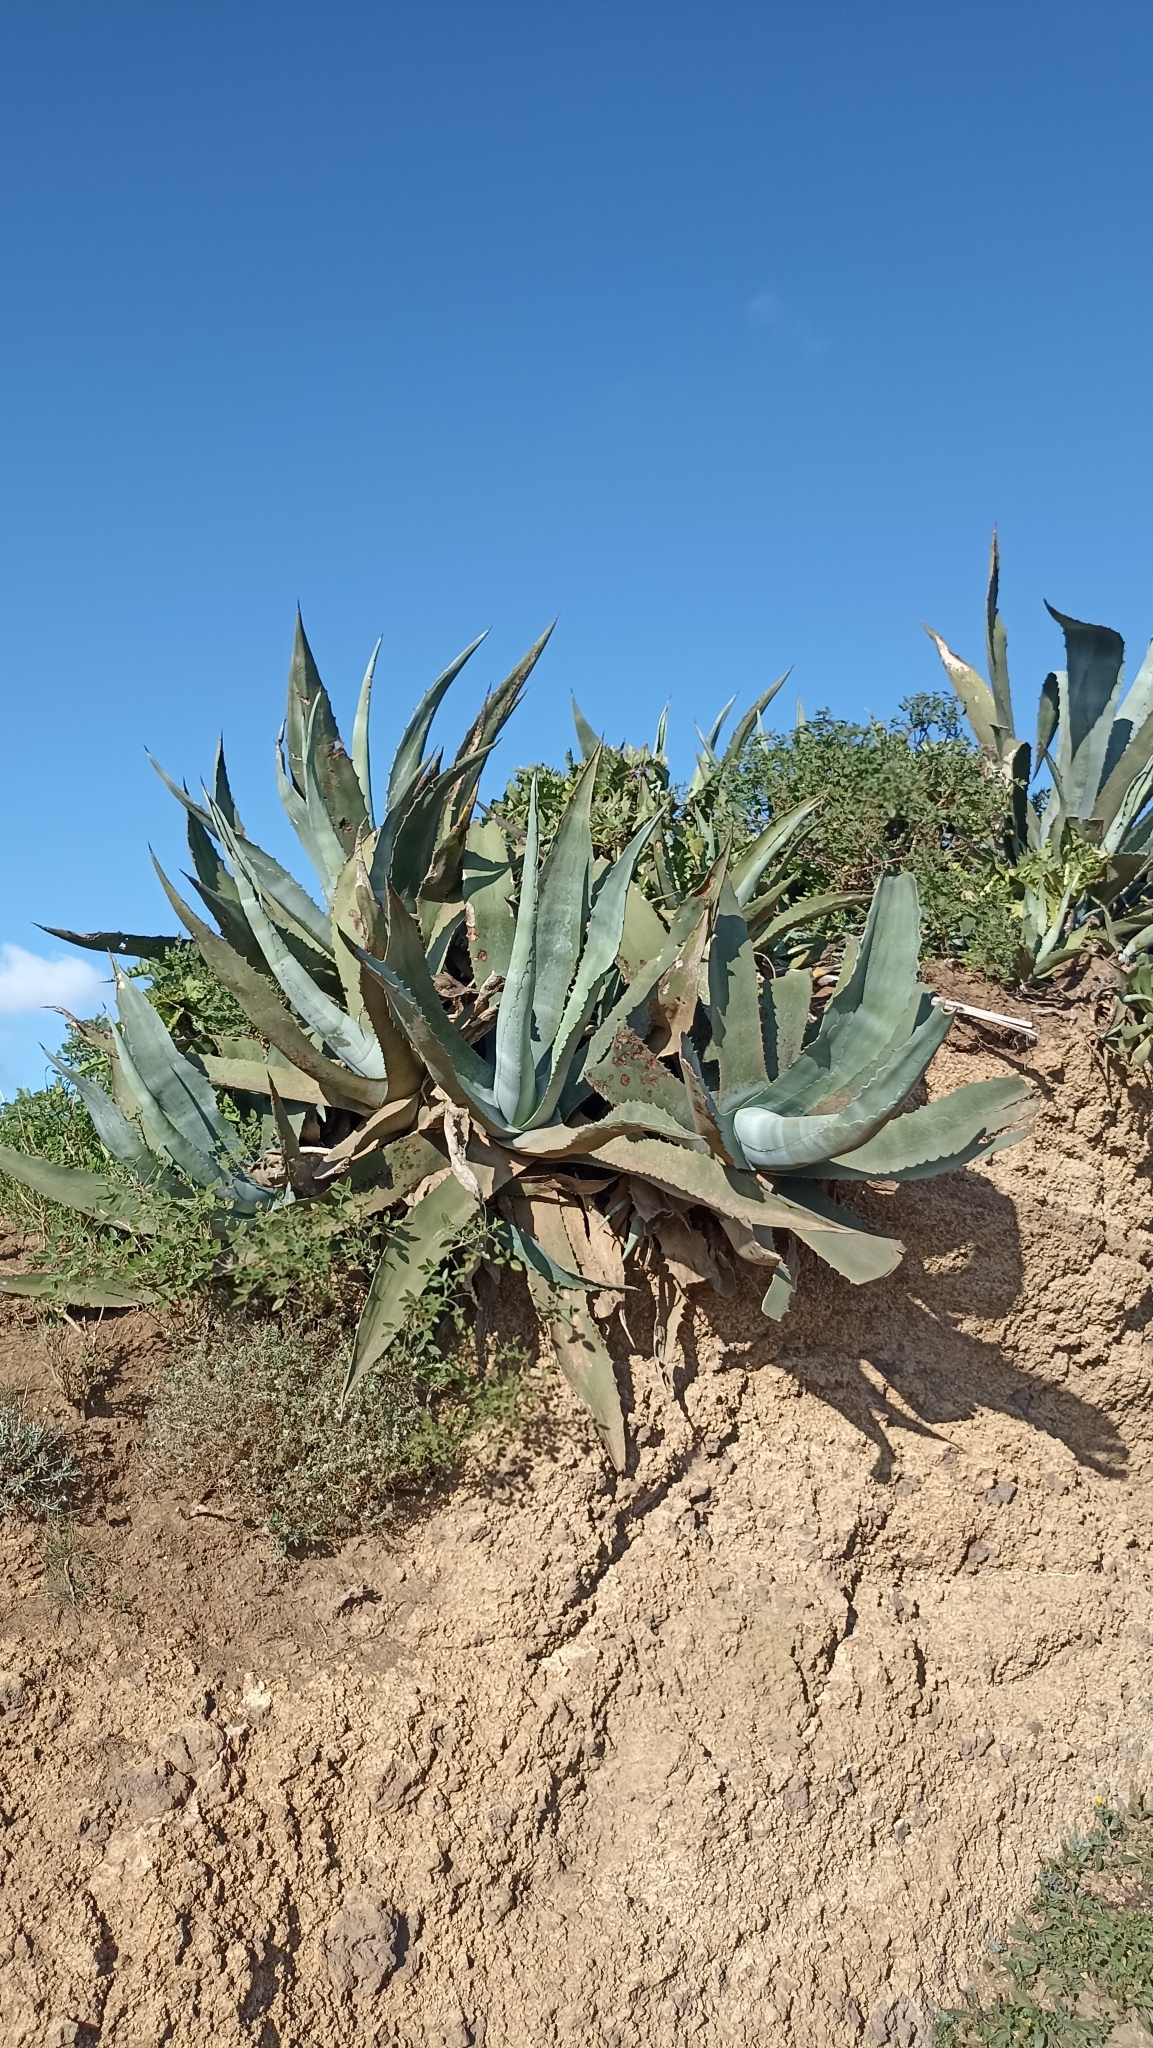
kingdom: Plantae
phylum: Tracheophyta
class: Liliopsida
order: Asparagales
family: Asparagaceae
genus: Agave
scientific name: Agave americana
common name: Centuryplant
